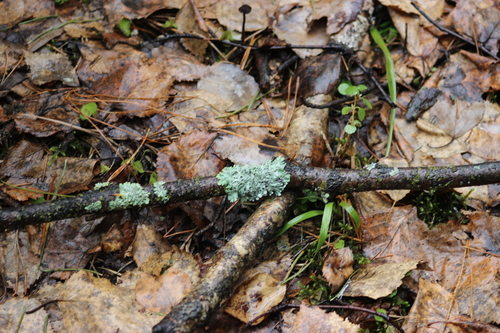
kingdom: Fungi
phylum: Ascomycota
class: Lecanoromycetes
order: Lecanorales
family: Parmeliaceae
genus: Hypogymnia
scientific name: Hypogymnia physodes
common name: Dark crottle
